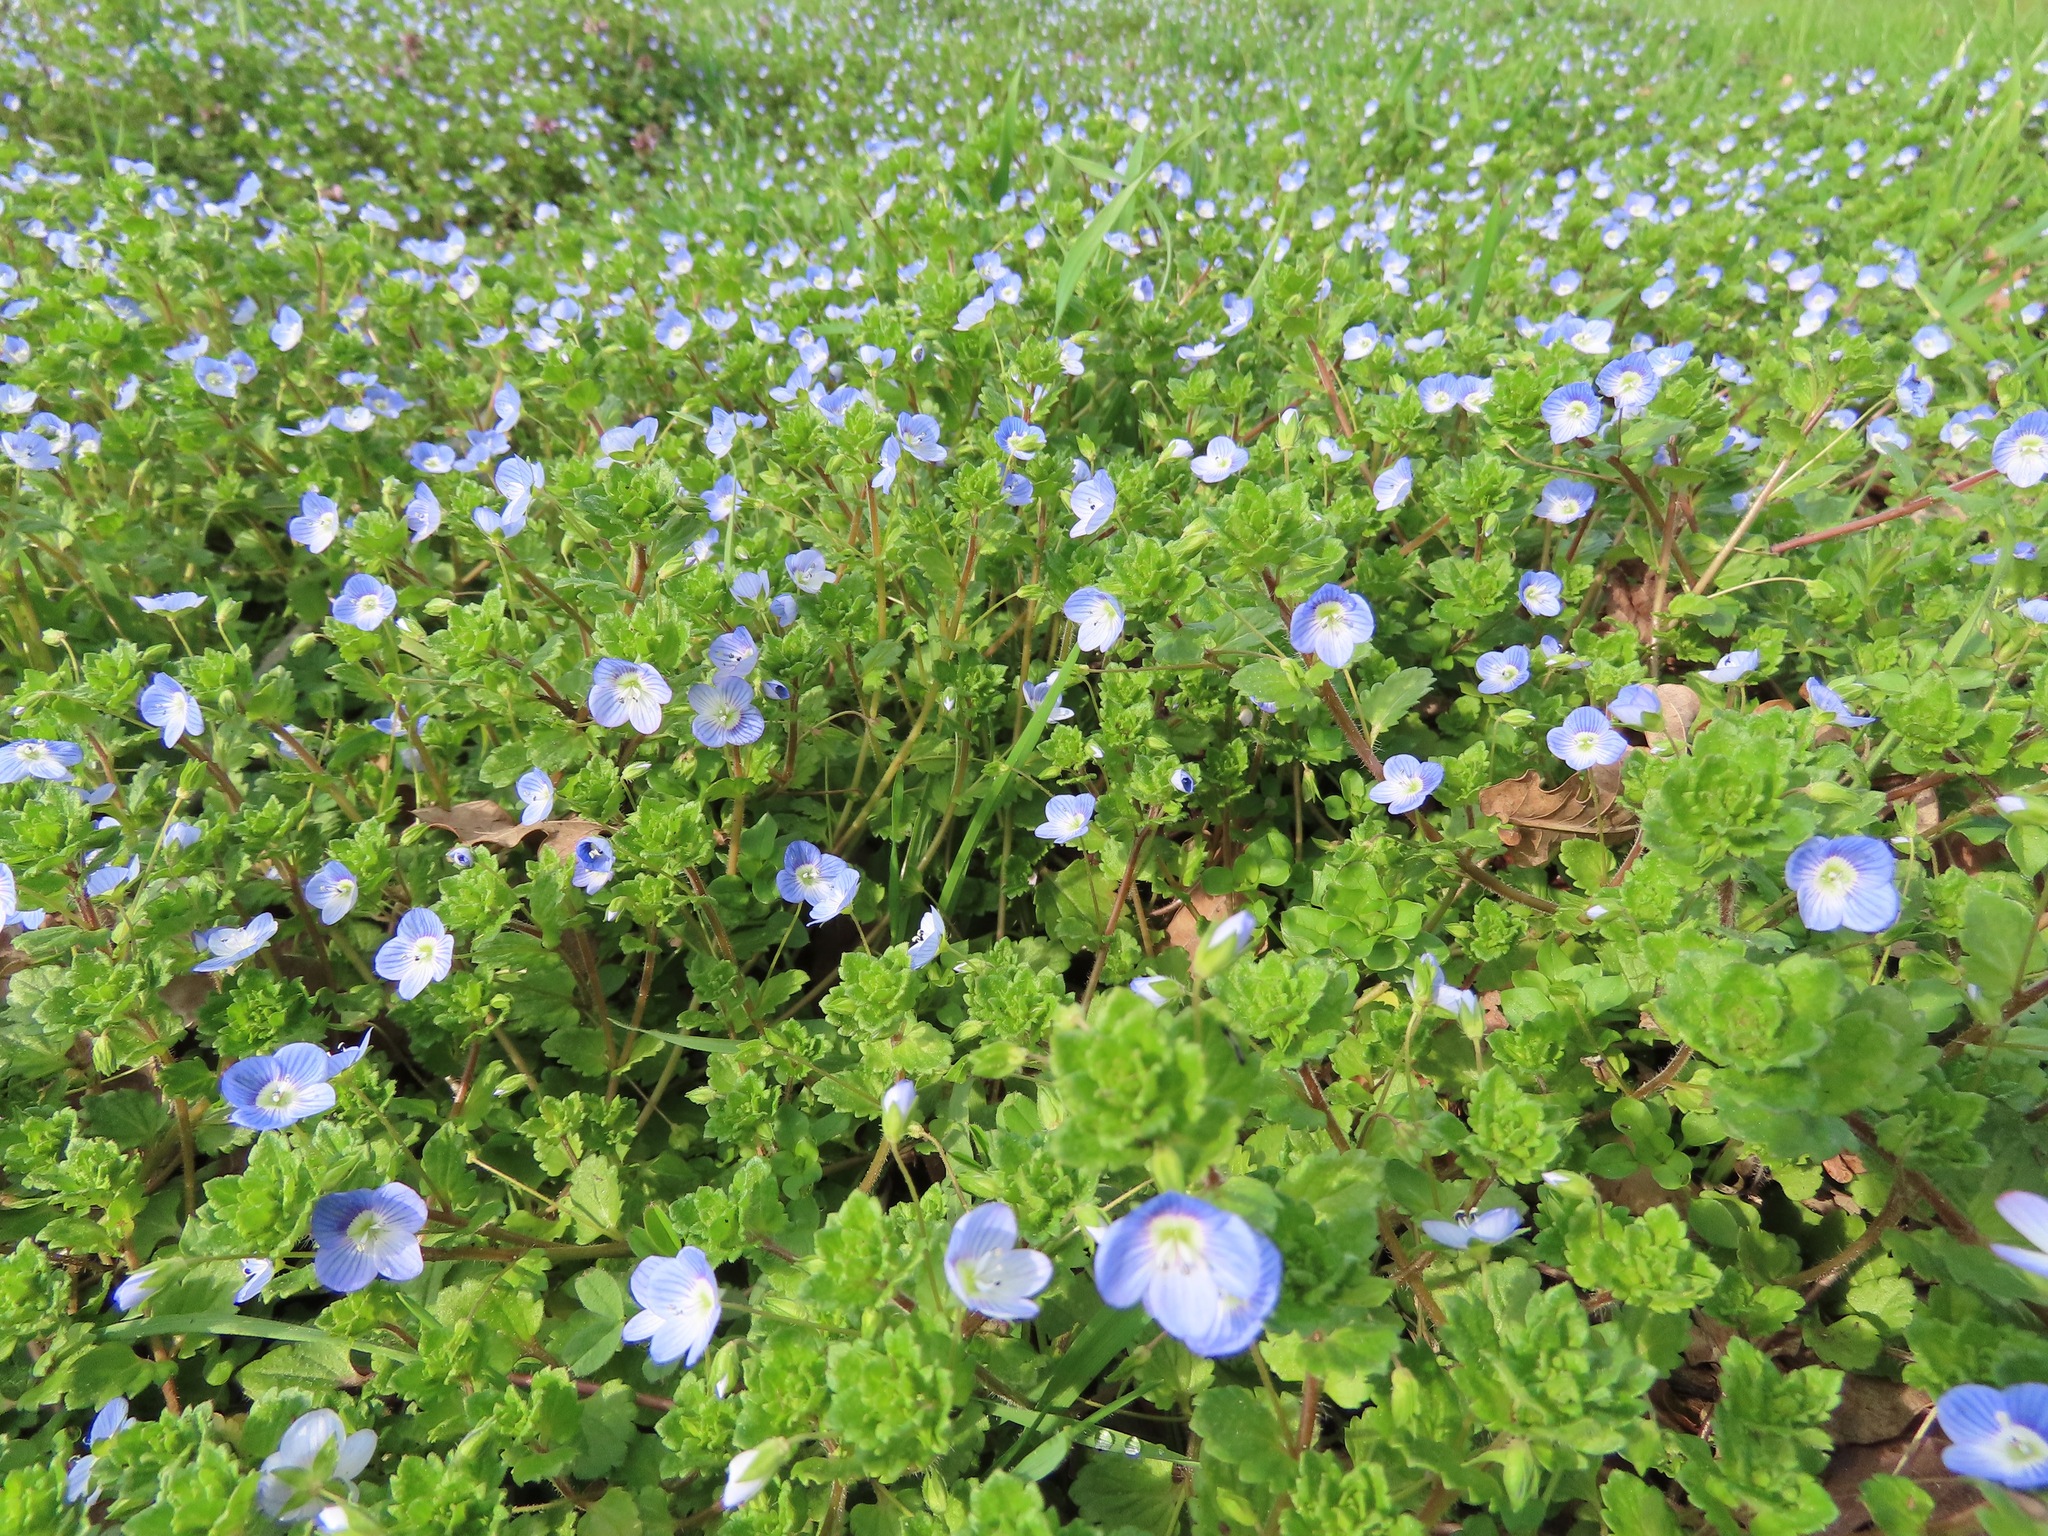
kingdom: Plantae
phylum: Tracheophyta
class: Magnoliopsida
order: Lamiales
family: Plantaginaceae
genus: Veronica
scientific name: Veronica persica
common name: Common field-speedwell
